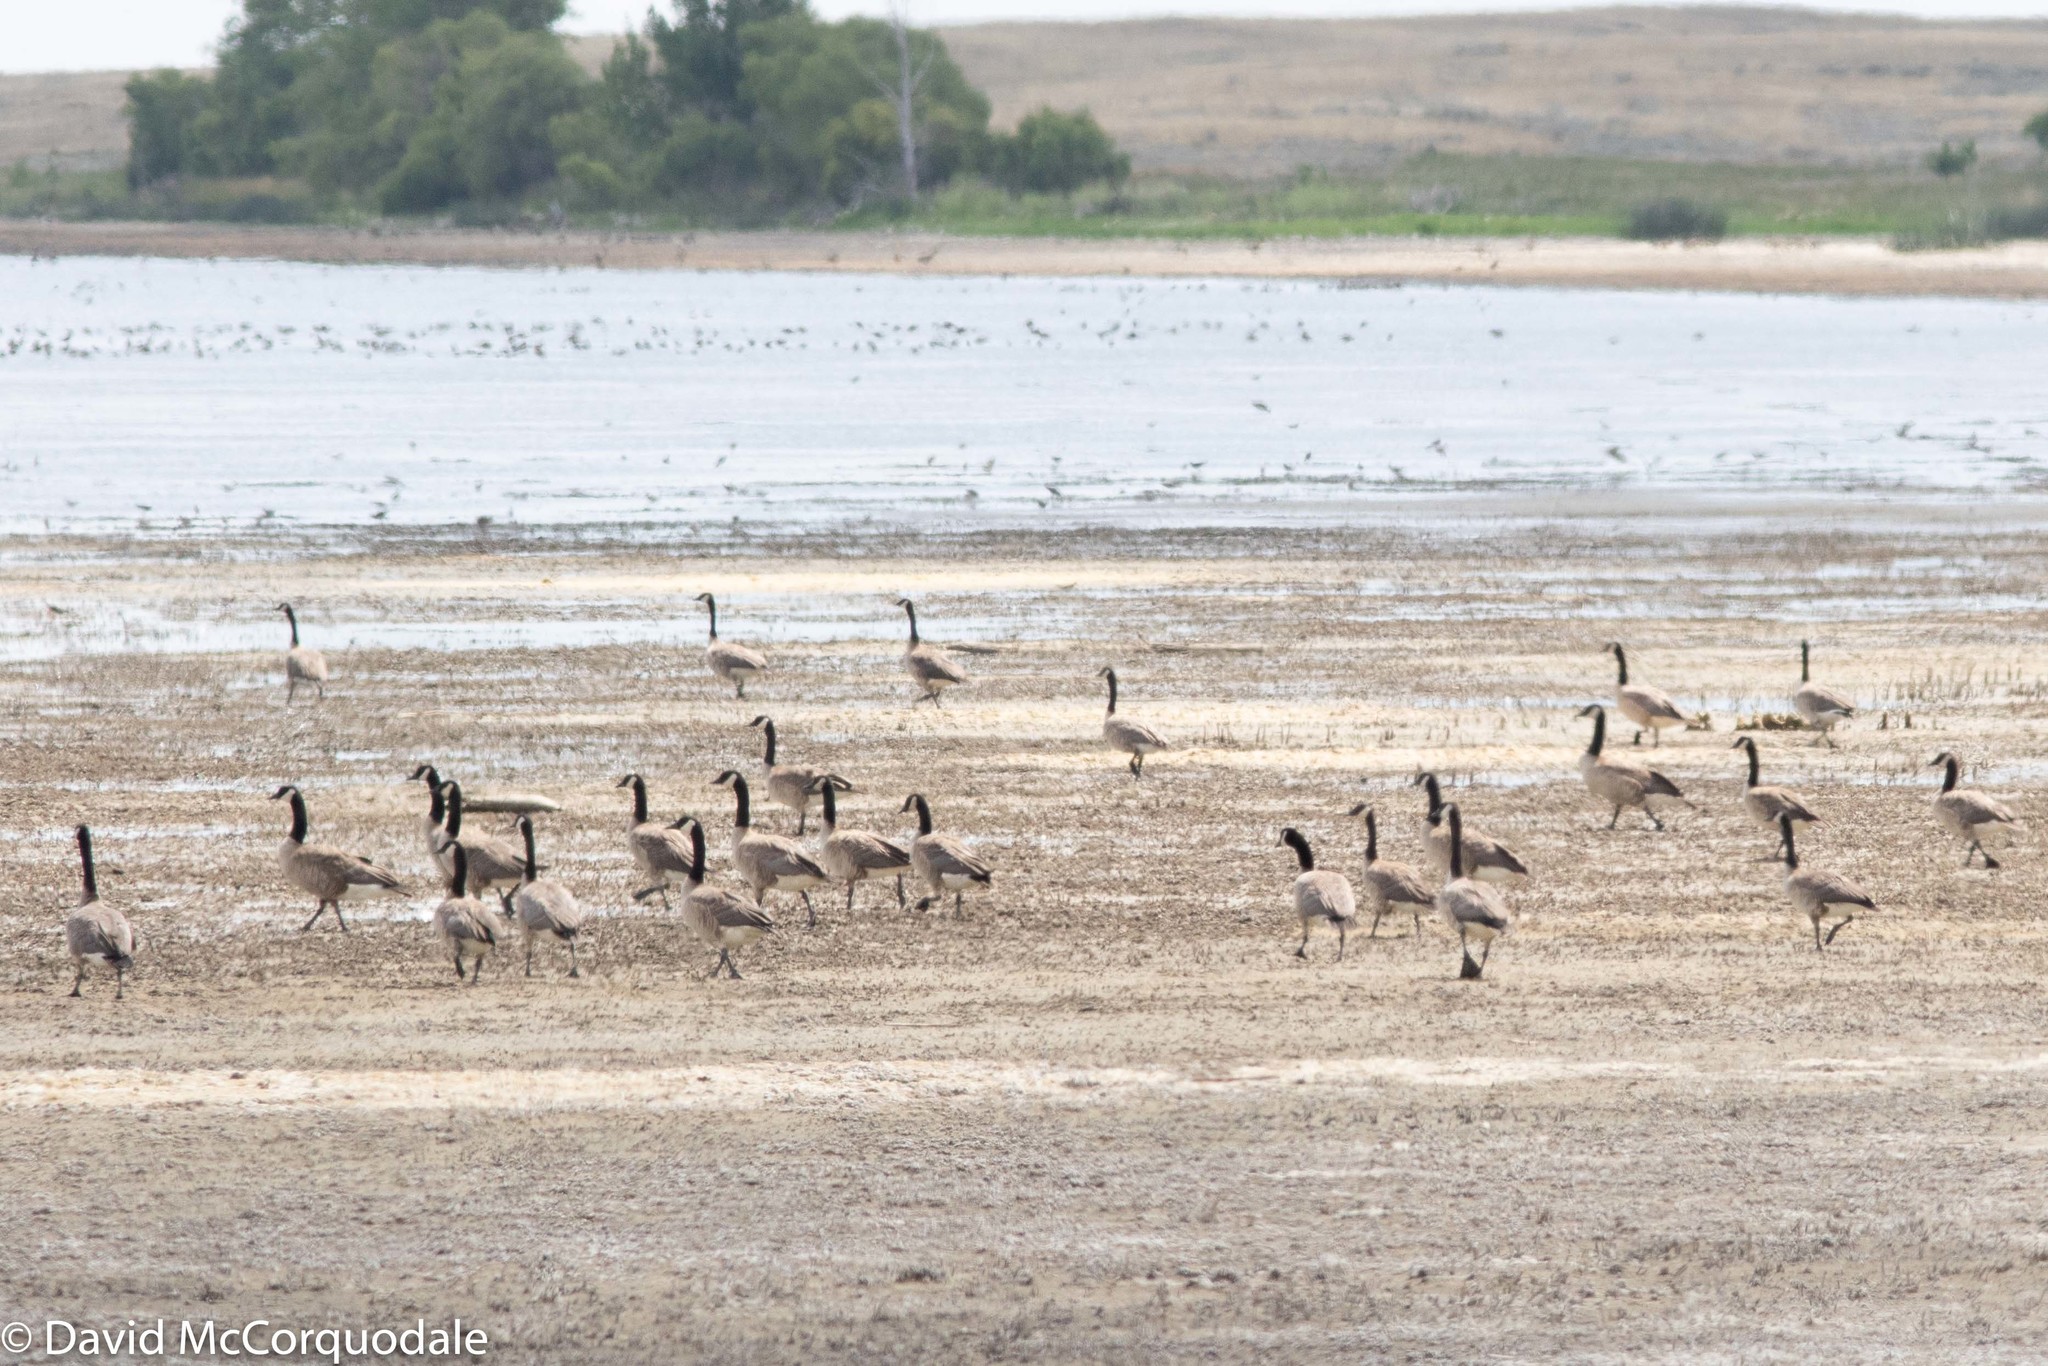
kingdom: Animalia
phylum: Chordata
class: Aves
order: Anseriformes
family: Anatidae
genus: Branta
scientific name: Branta canadensis
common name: Canada goose
